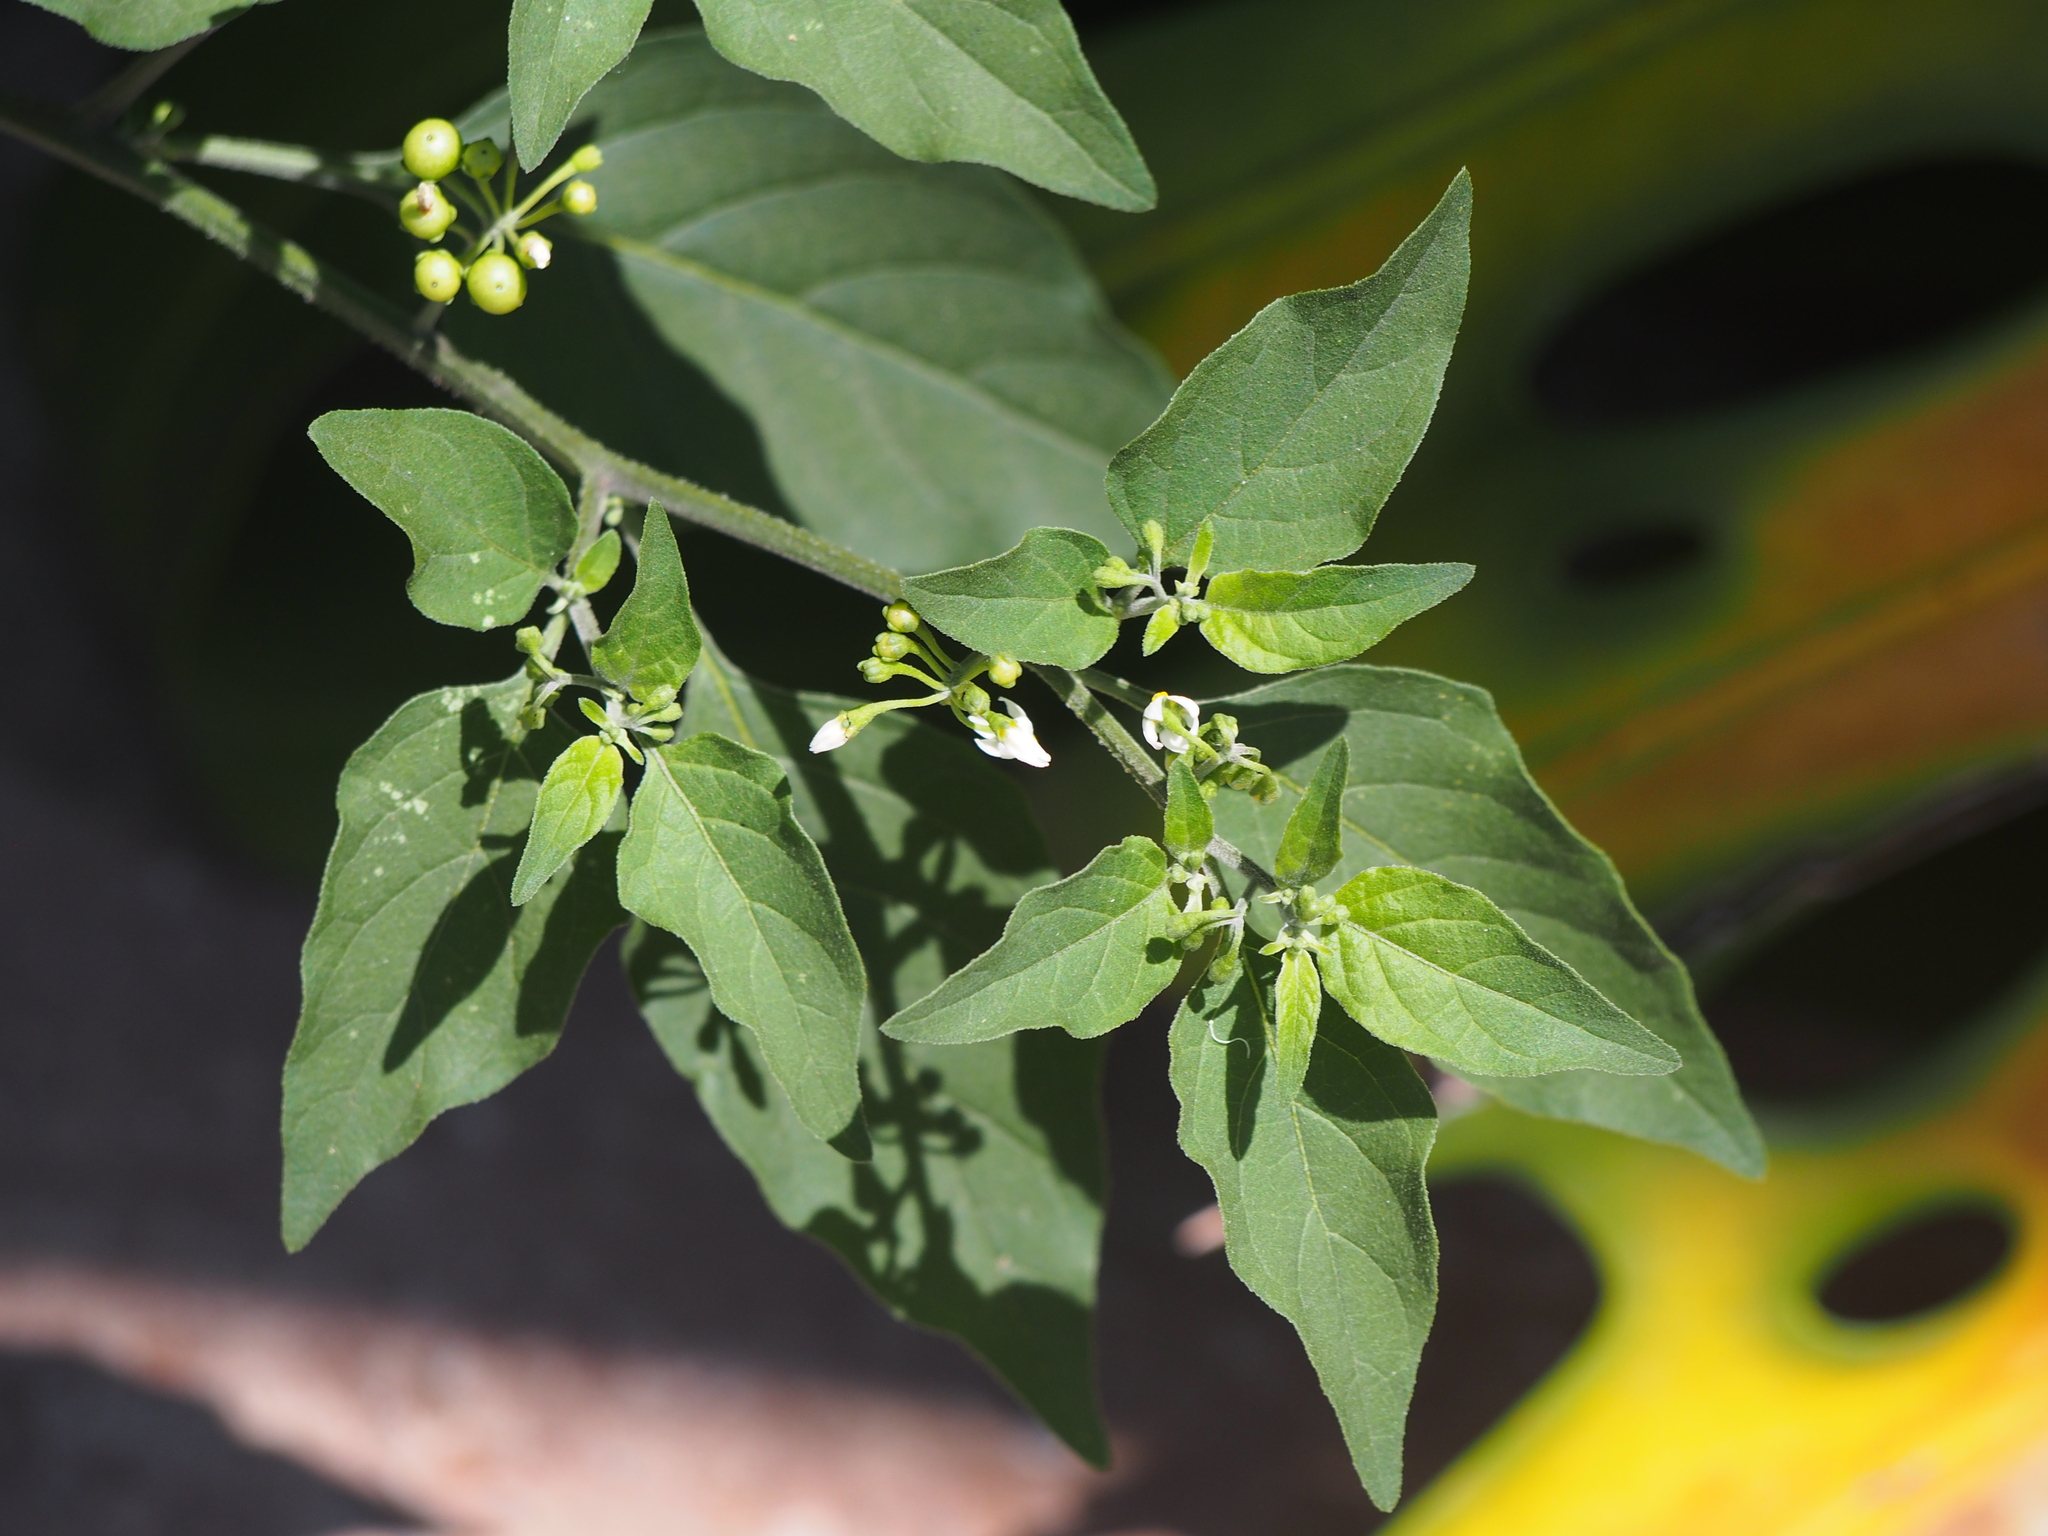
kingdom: Plantae
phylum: Tracheophyta
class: Magnoliopsida
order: Solanales
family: Solanaceae
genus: Solanum
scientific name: Solanum americanum
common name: American black nightshade
